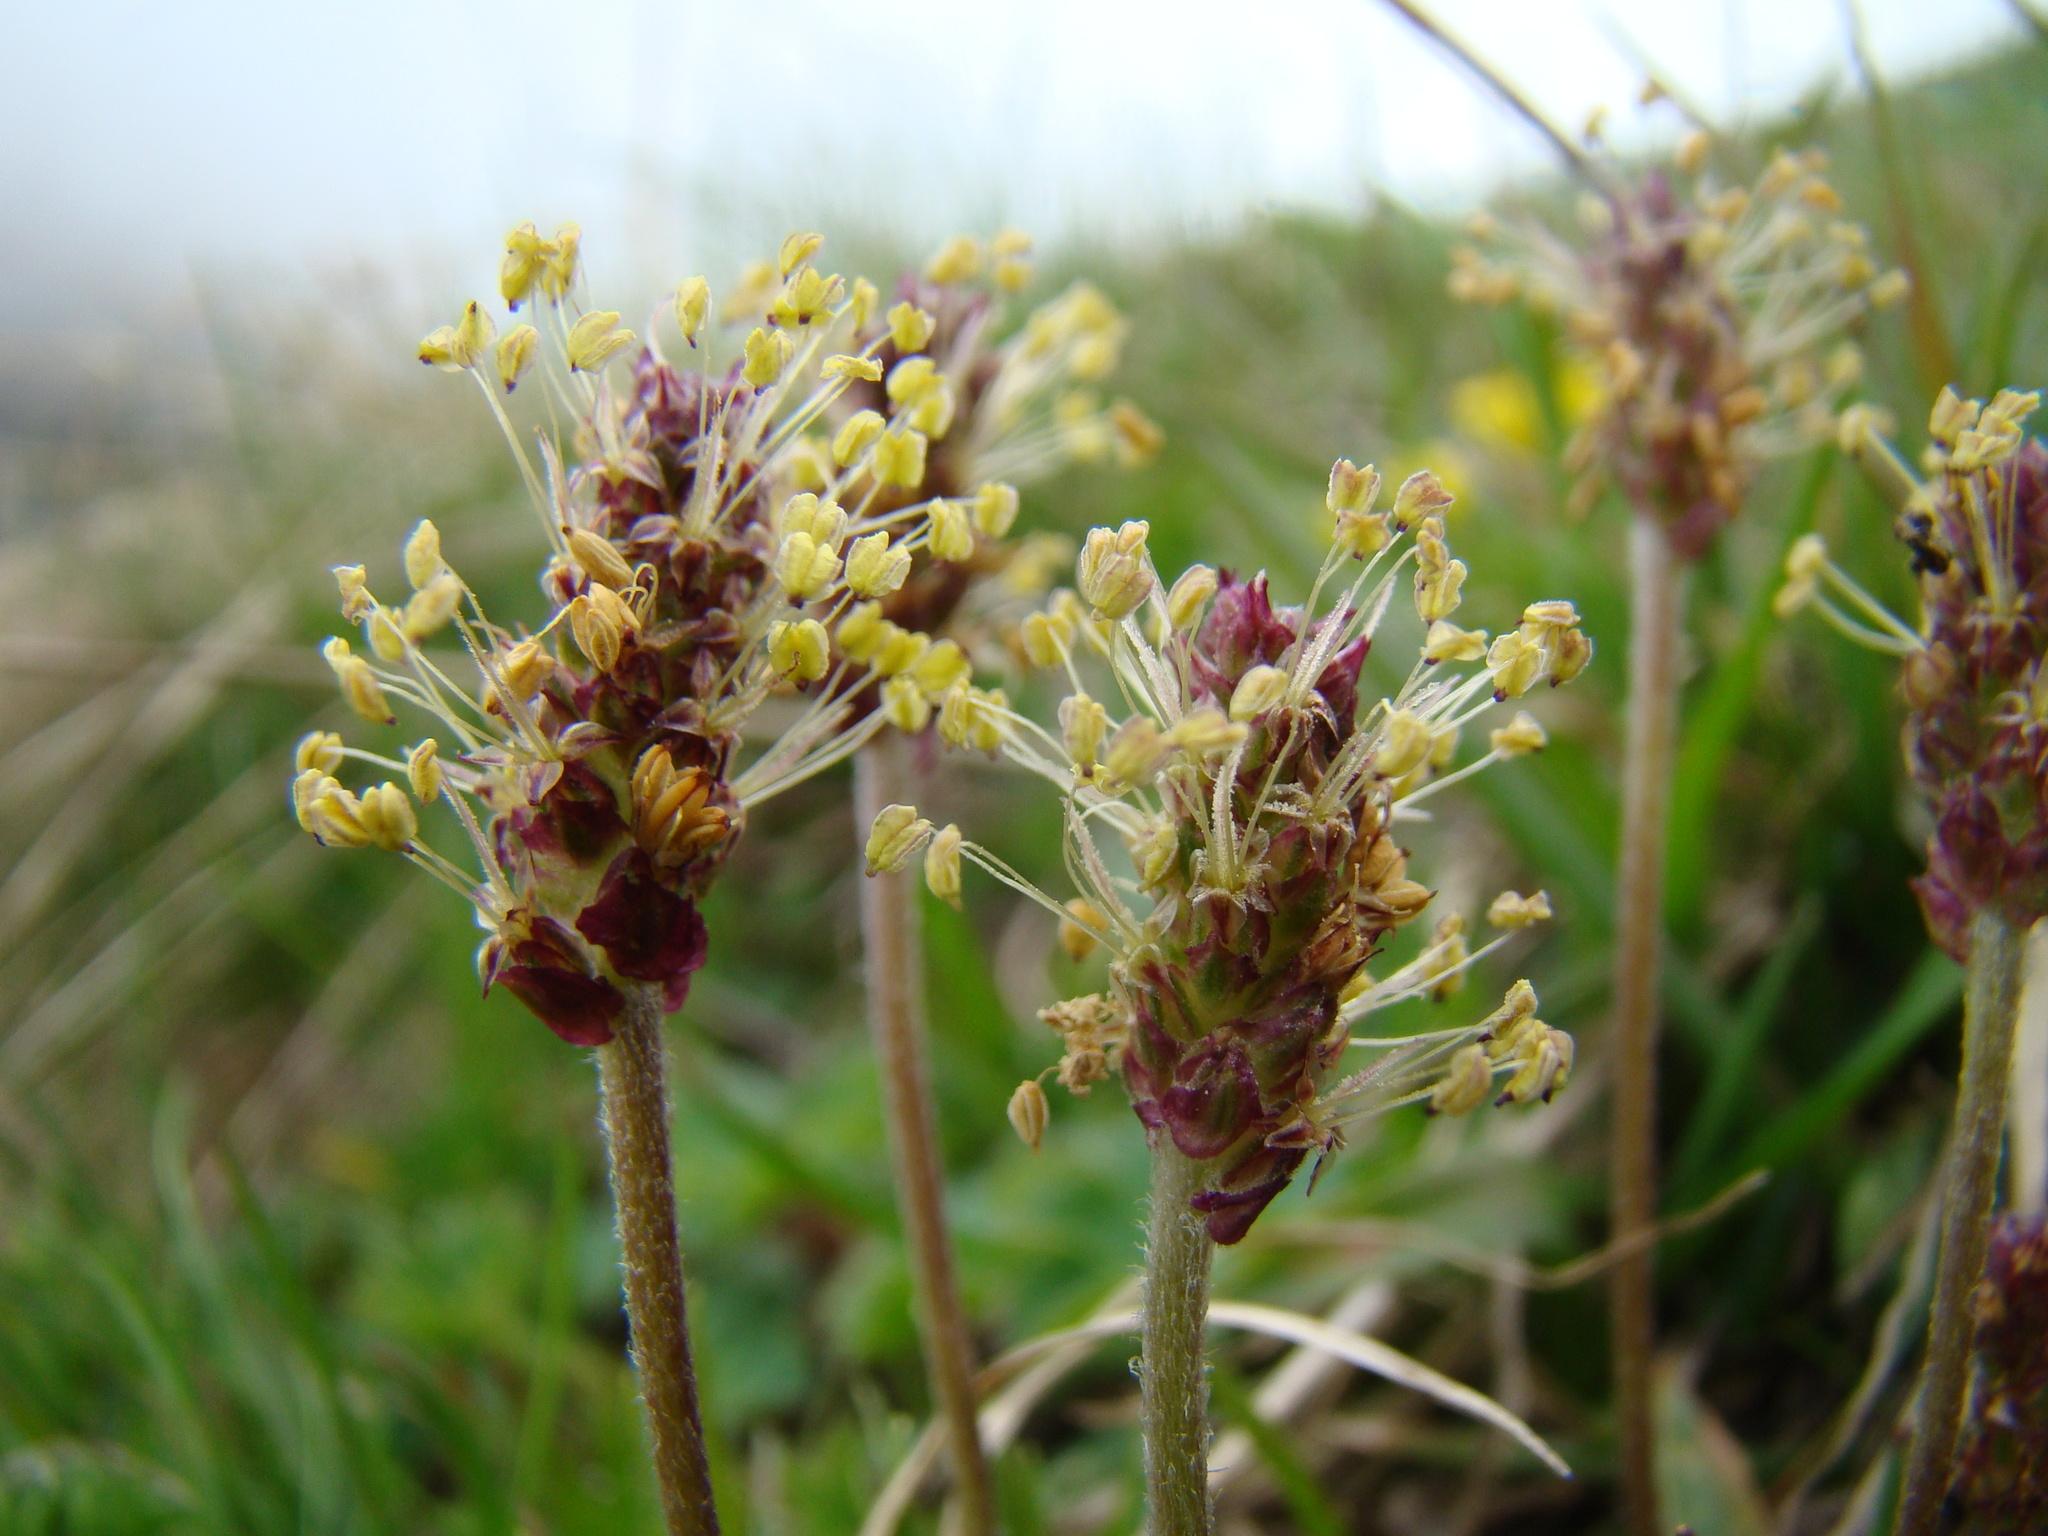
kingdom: Plantae
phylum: Tracheophyta
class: Magnoliopsida
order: Lamiales
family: Plantaginaceae
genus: Plantago
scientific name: Plantago alpina
